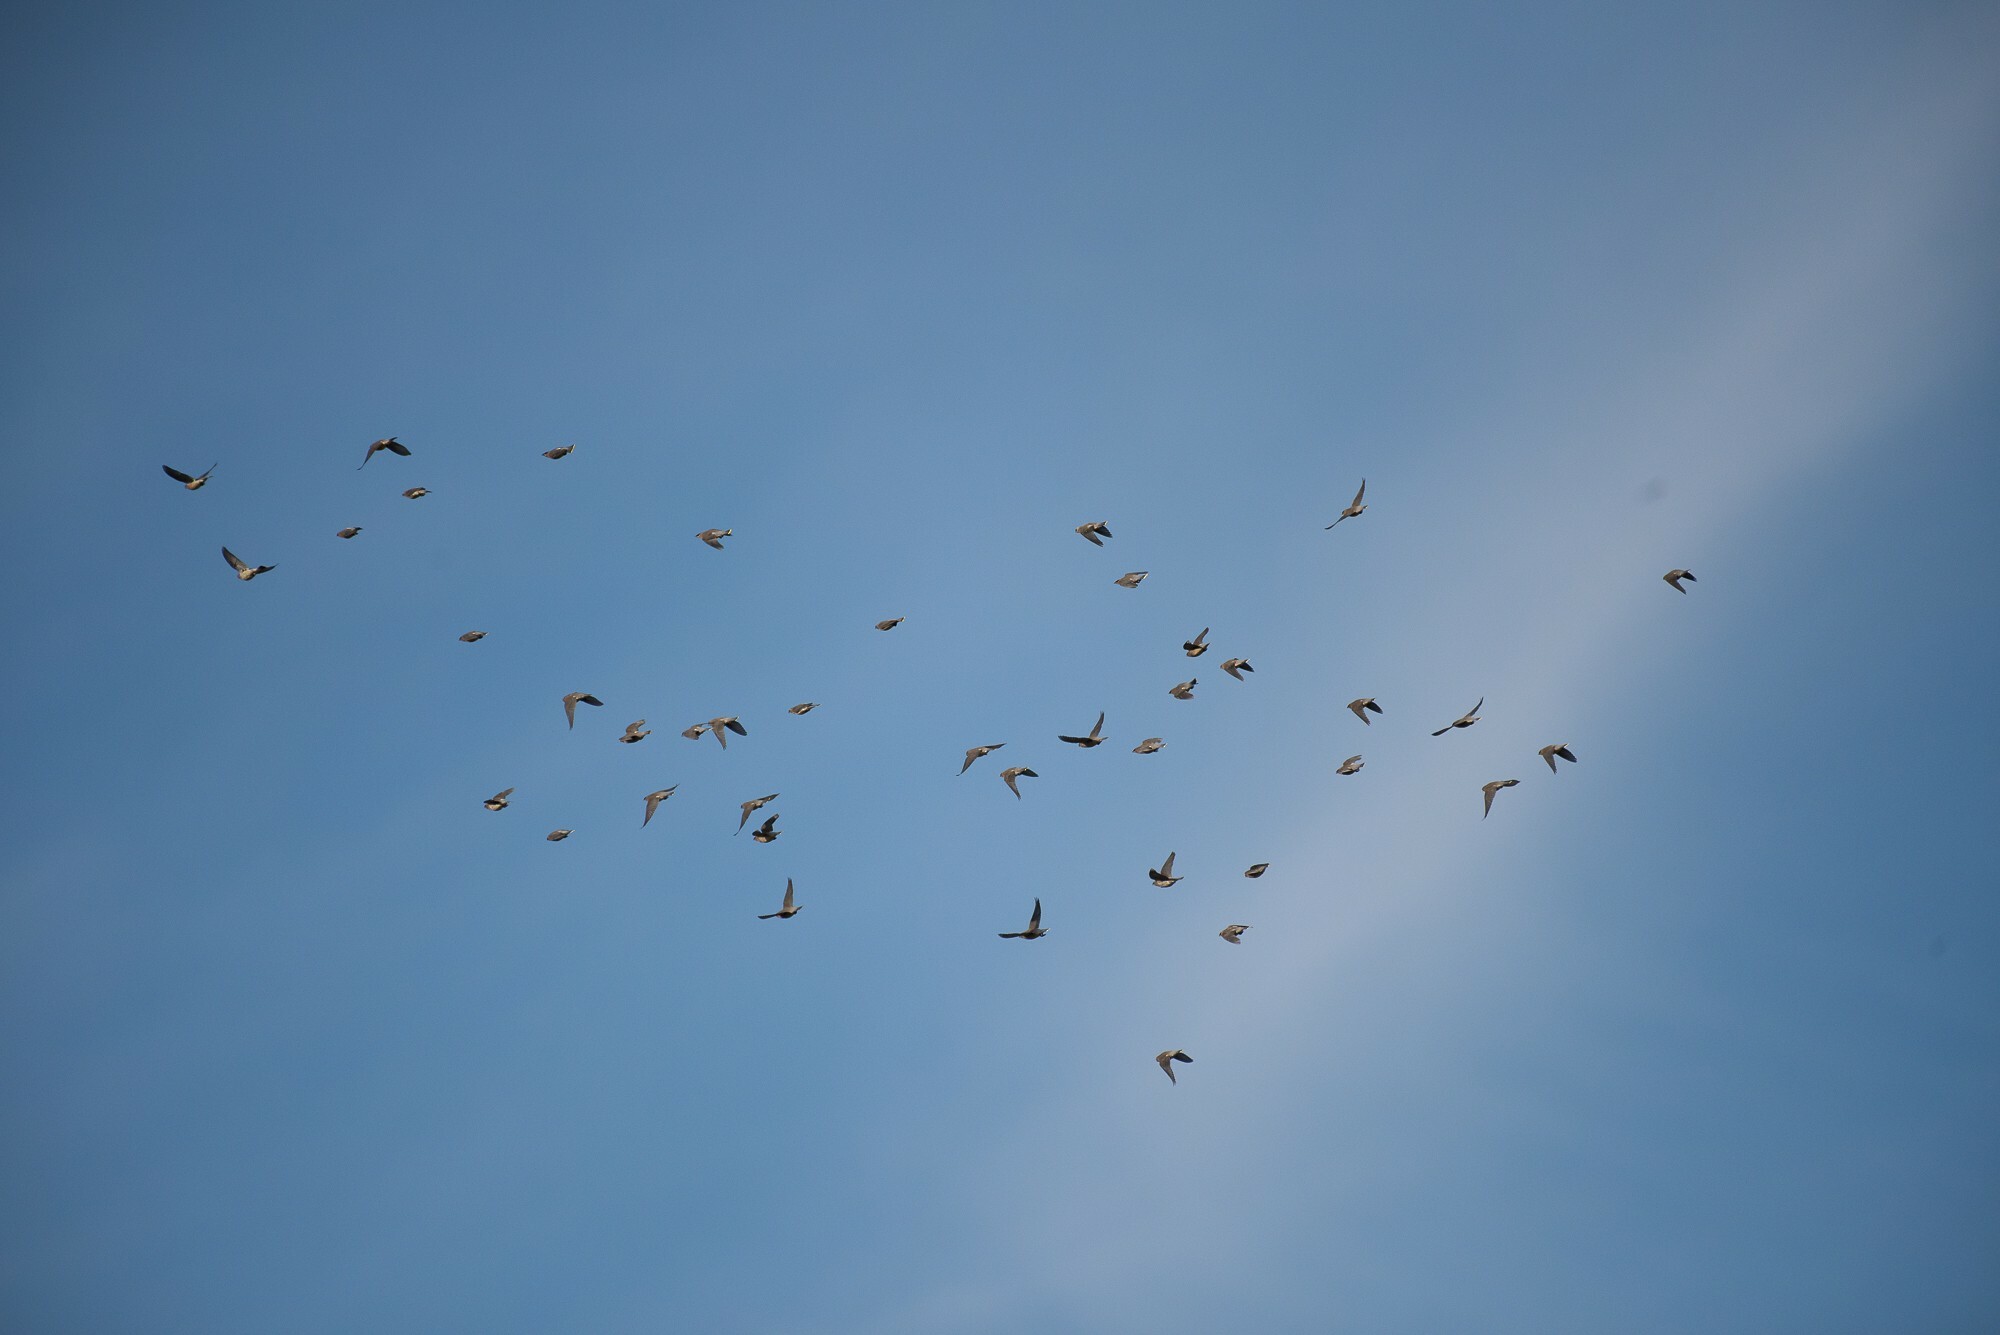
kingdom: Animalia
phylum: Chordata
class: Aves
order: Passeriformes
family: Bombycillidae
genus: Bombycilla
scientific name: Bombycilla cedrorum
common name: Cedar waxwing
